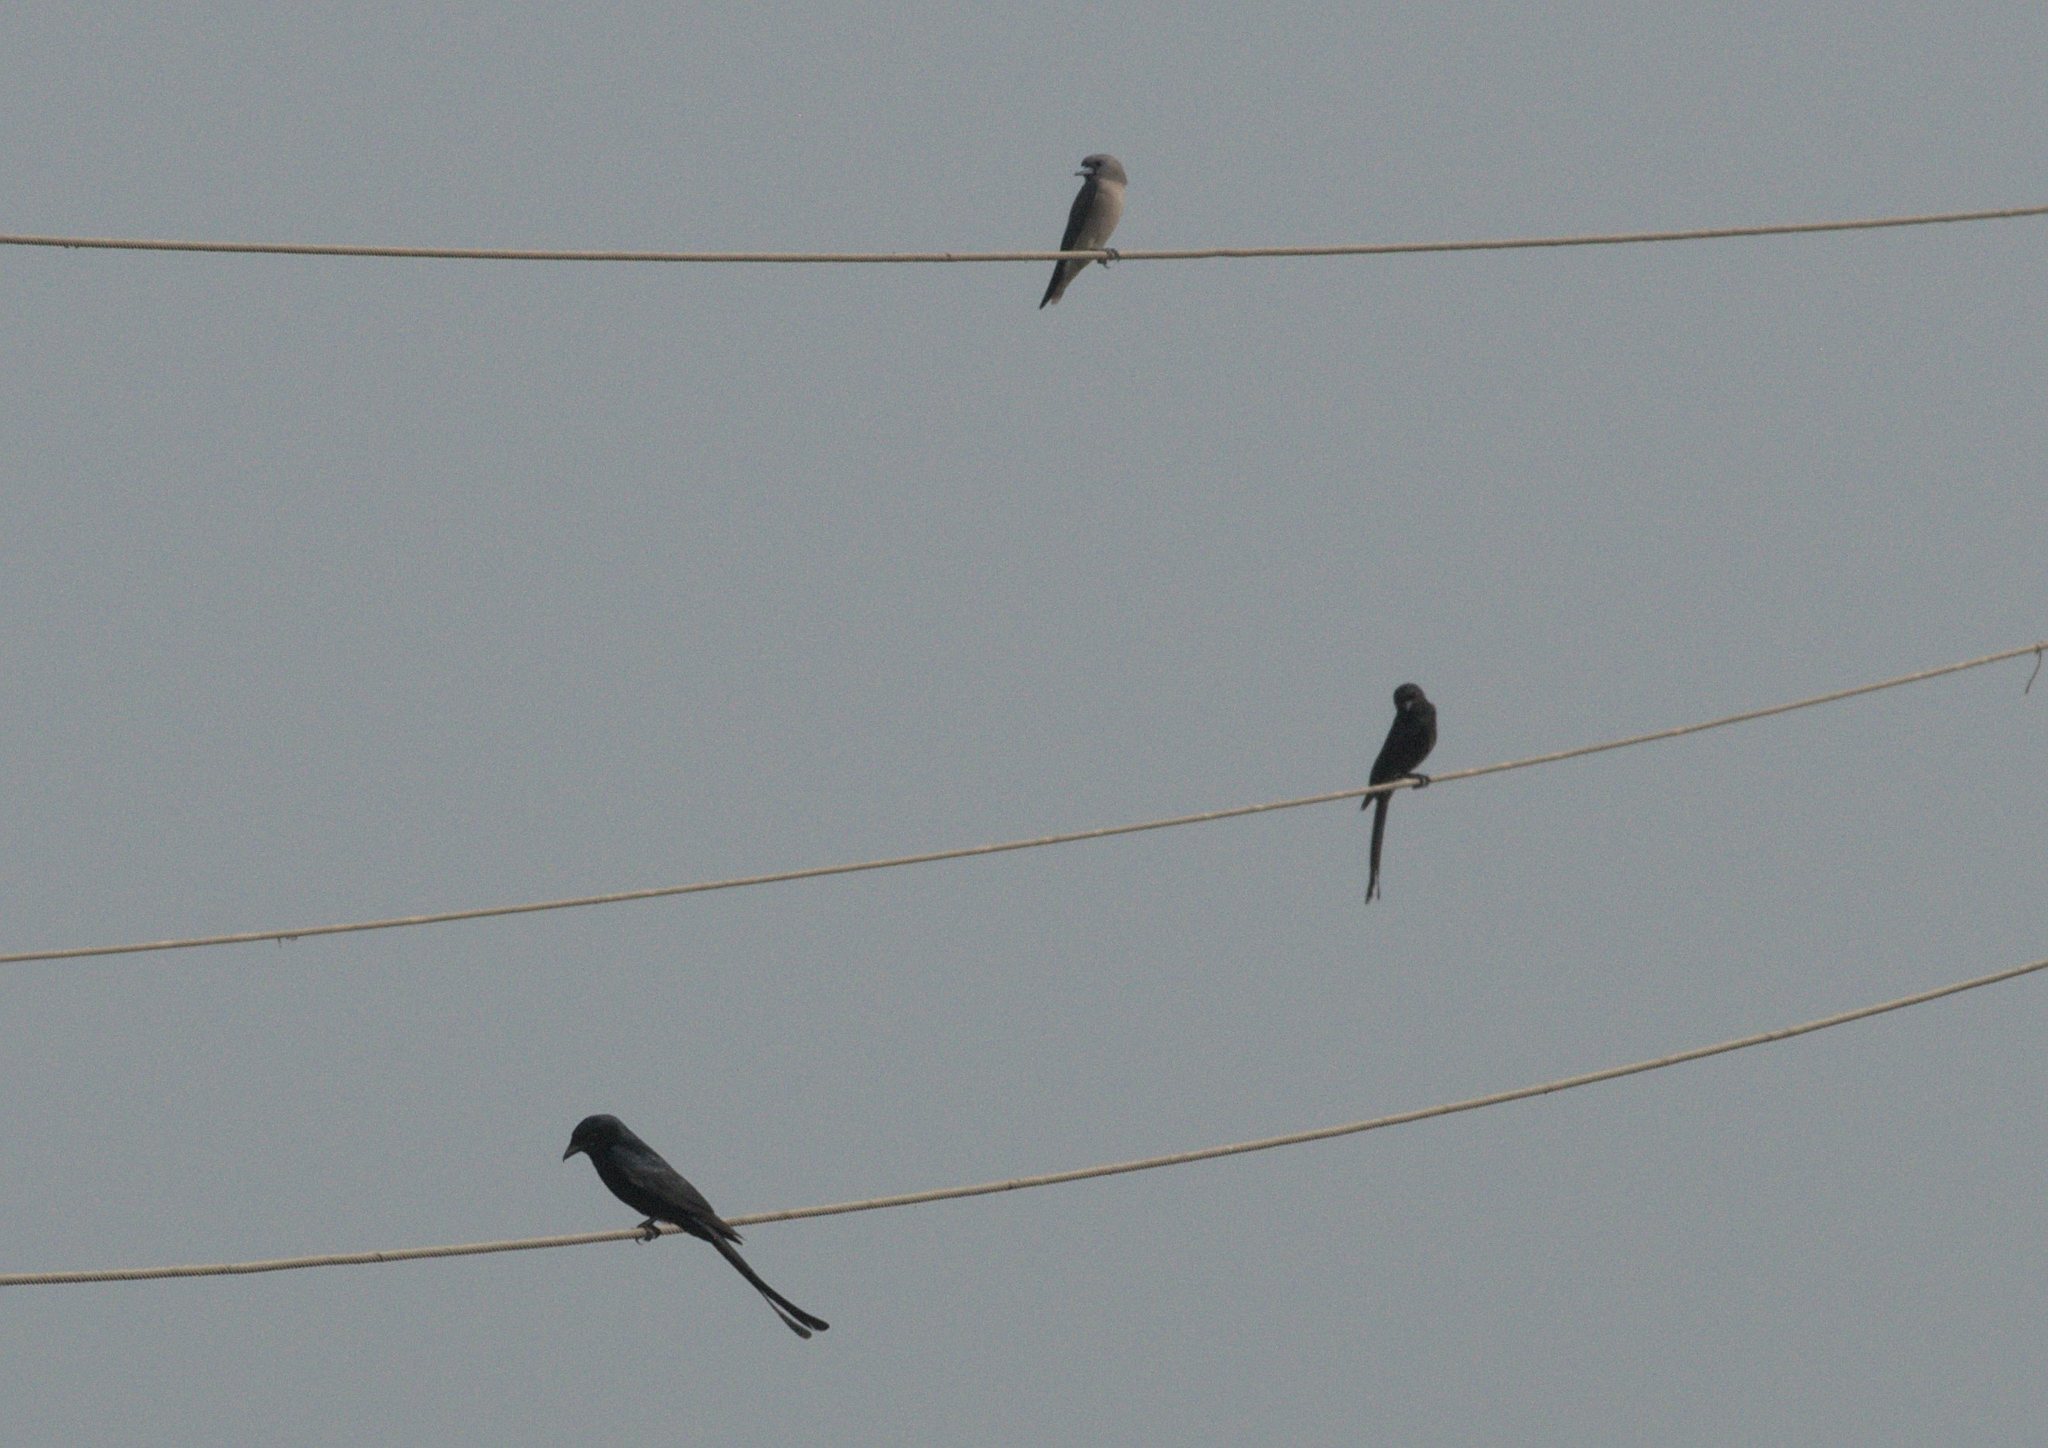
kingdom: Animalia
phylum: Chordata
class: Aves
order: Passeriformes
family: Artamidae
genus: Artamus
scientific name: Artamus fuscus
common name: Ashy woodswallow
